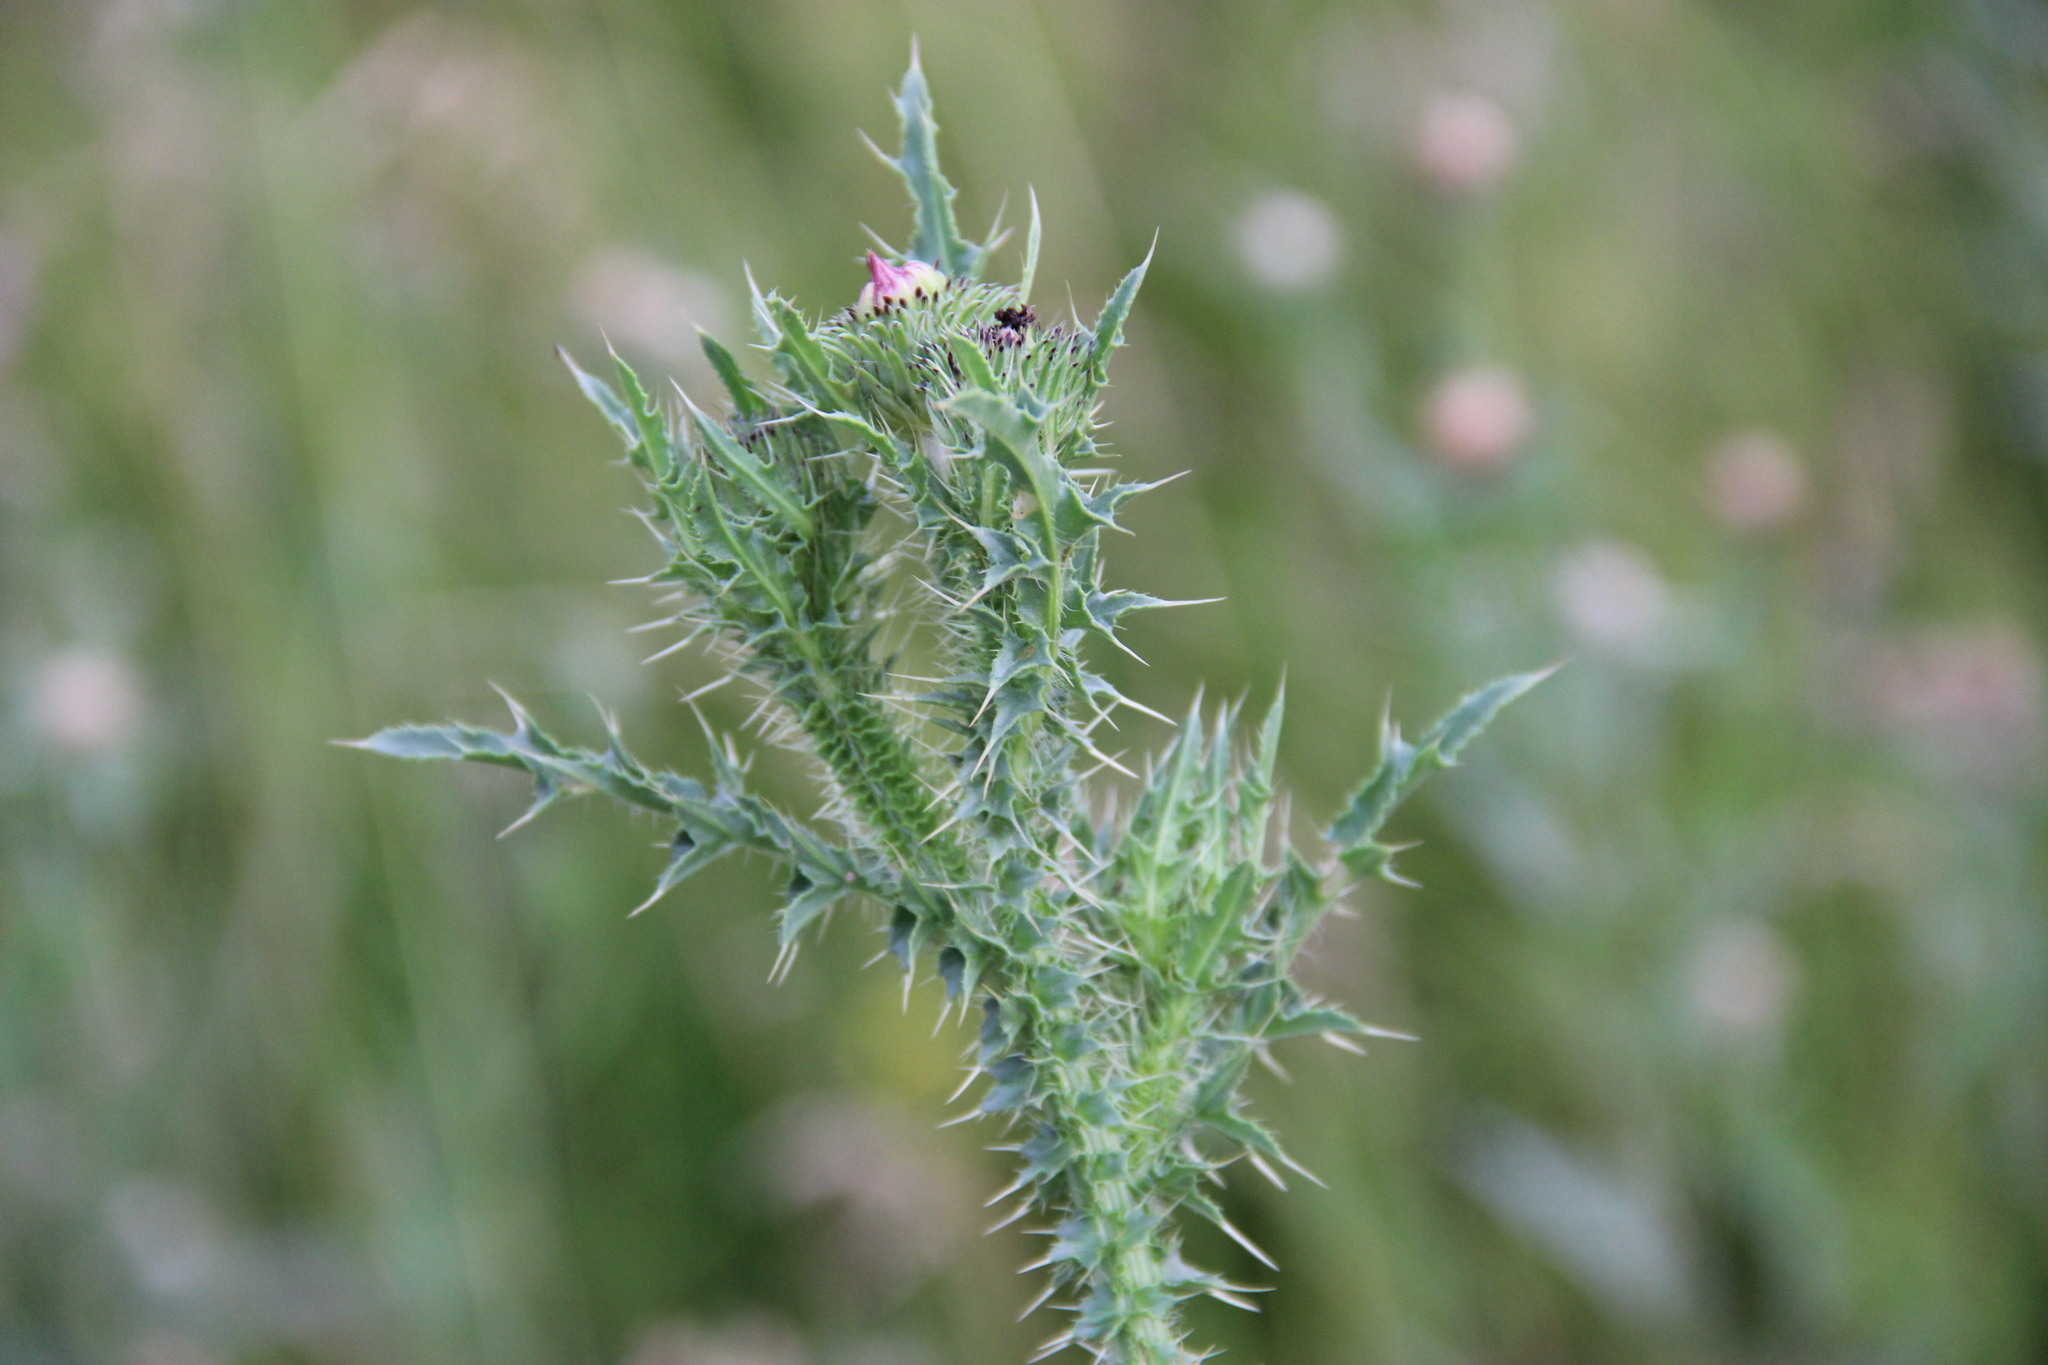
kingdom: Plantae
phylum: Tracheophyta
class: Magnoliopsida
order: Asterales
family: Asteraceae
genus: Carduus
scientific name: Carduus acanthoides
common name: Plumeless thistle
